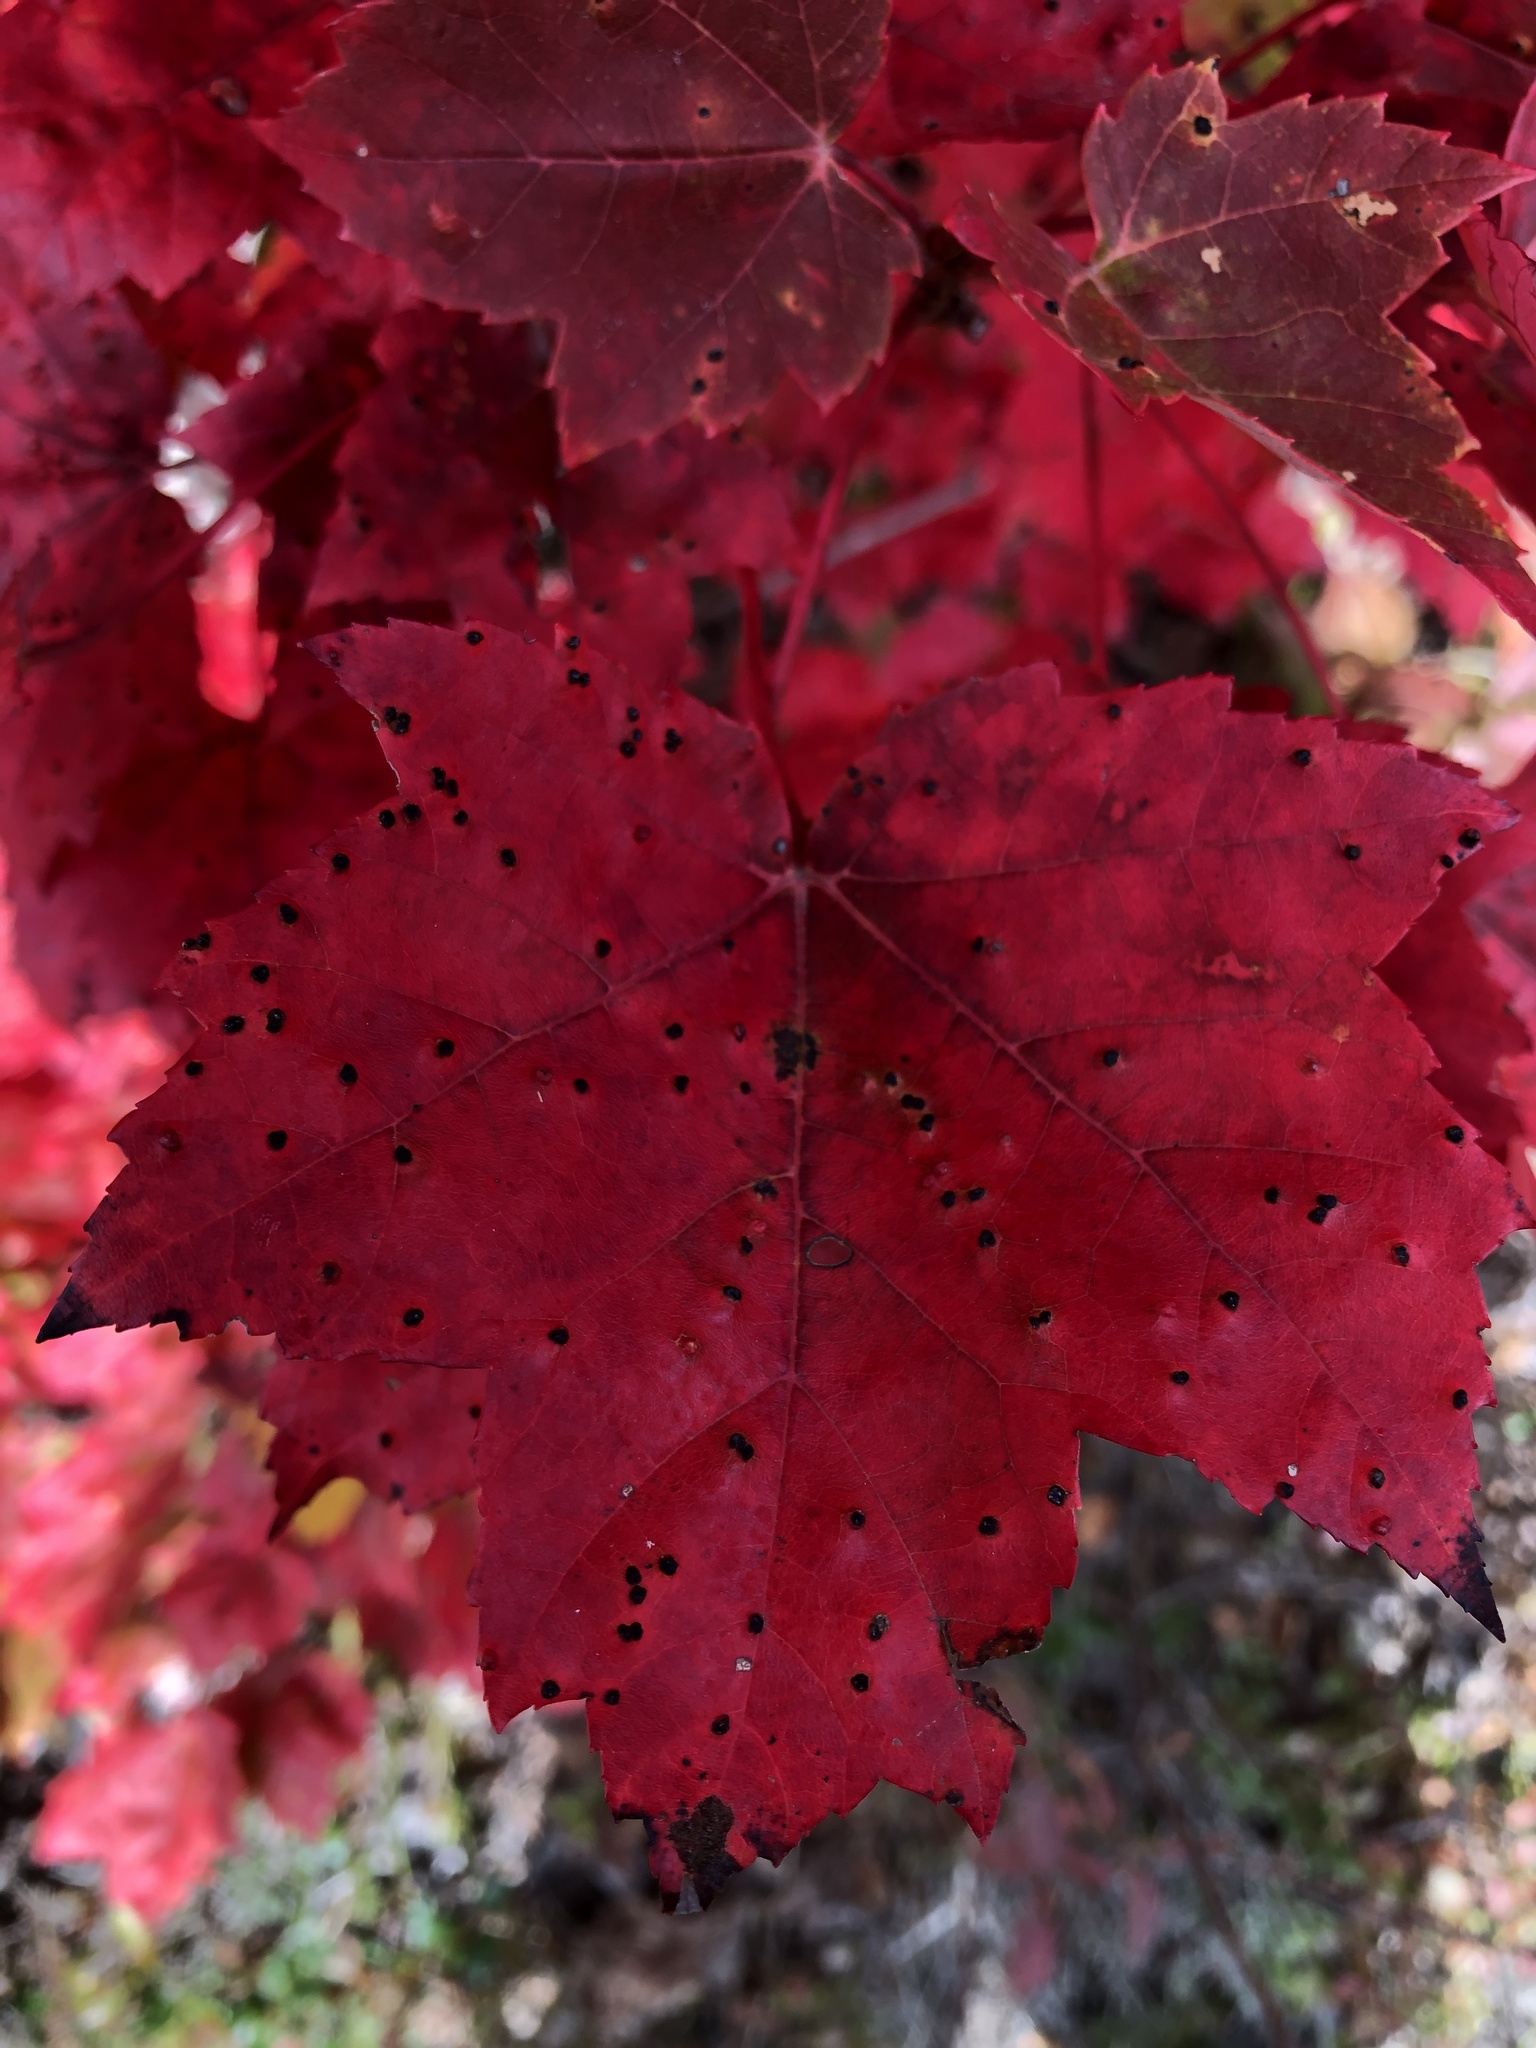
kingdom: Animalia
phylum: Arthropoda
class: Arachnida
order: Trombidiformes
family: Eriophyidae
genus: Vasates
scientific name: Vasates quadripedes
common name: Maple bladder gall mite
